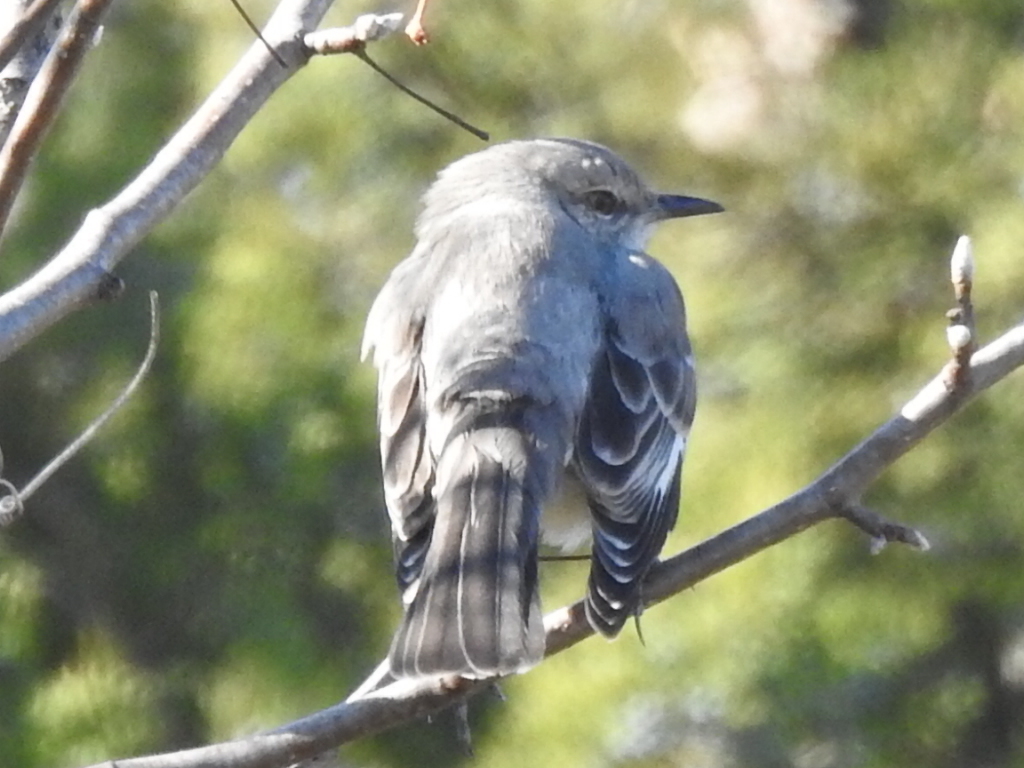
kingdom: Animalia
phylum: Chordata
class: Aves
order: Passeriformes
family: Mimidae
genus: Mimus
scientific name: Mimus polyglottos
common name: Northern mockingbird
